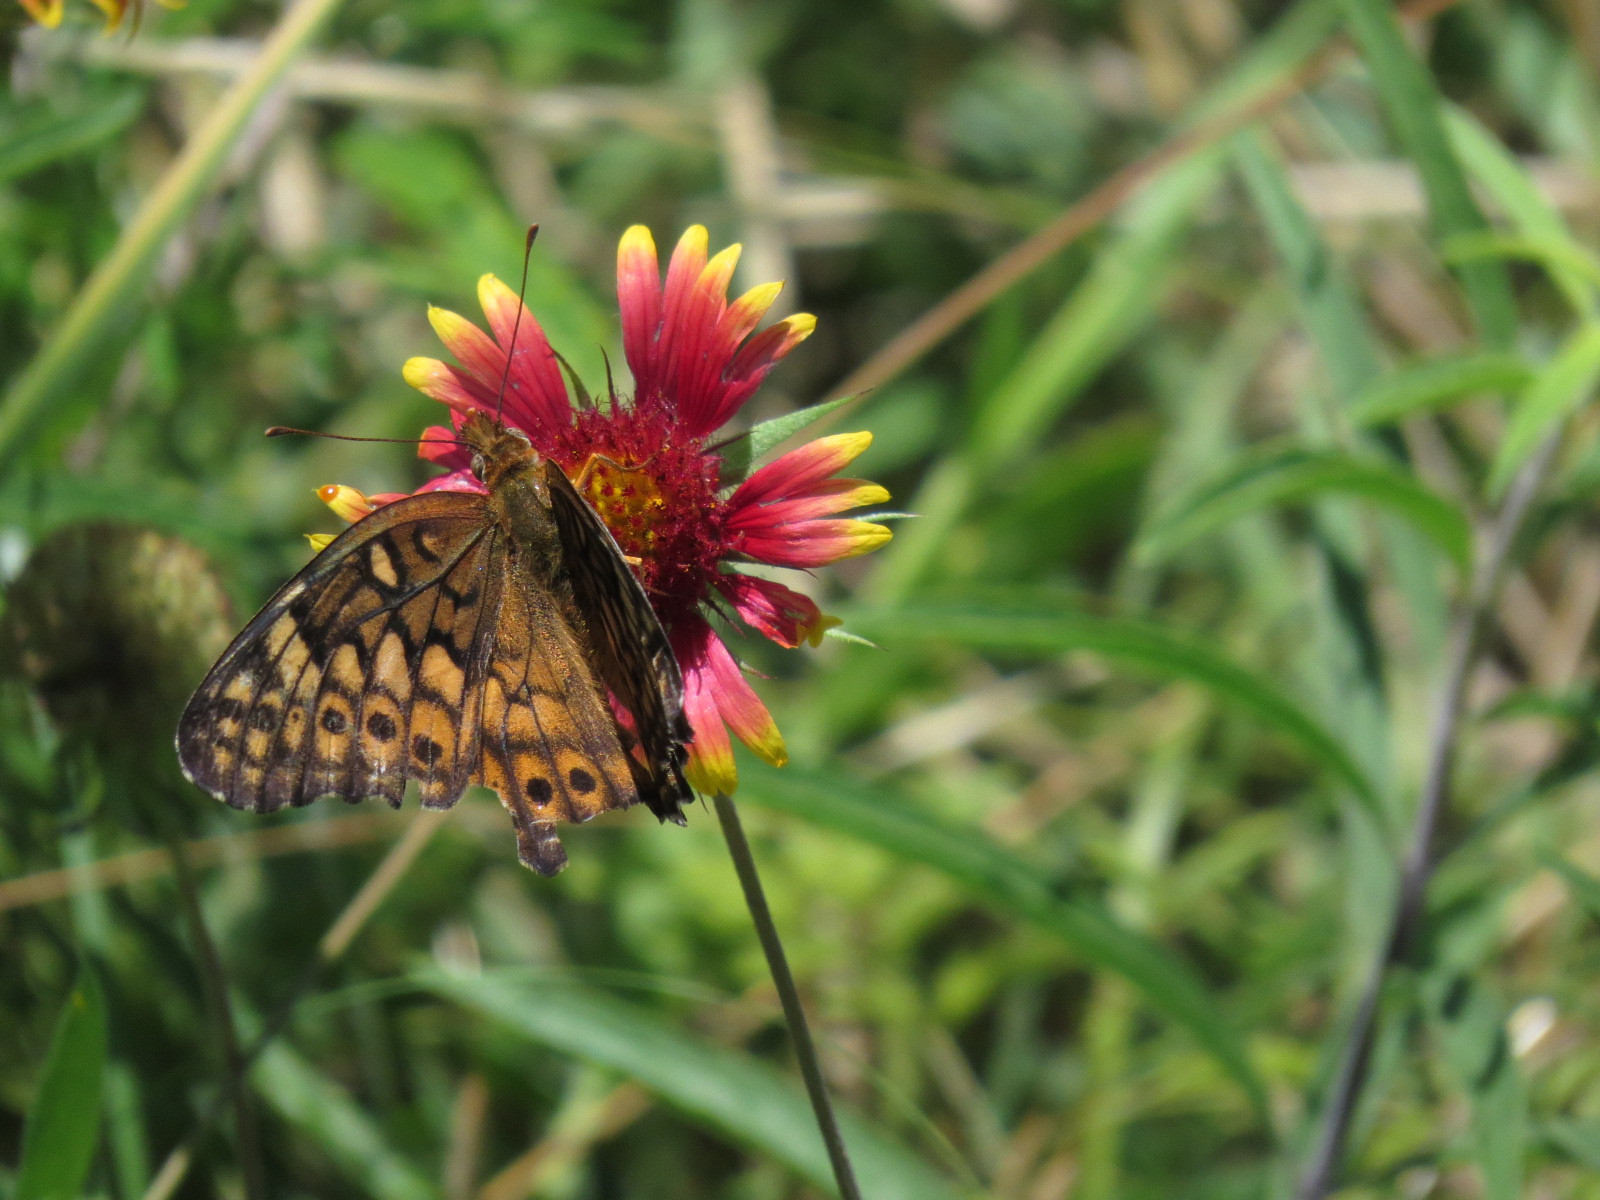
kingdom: Animalia
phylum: Arthropoda
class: Insecta
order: Lepidoptera
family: Nymphalidae
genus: Euptoieta
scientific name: Euptoieta claudia
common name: Variegated fritillary
